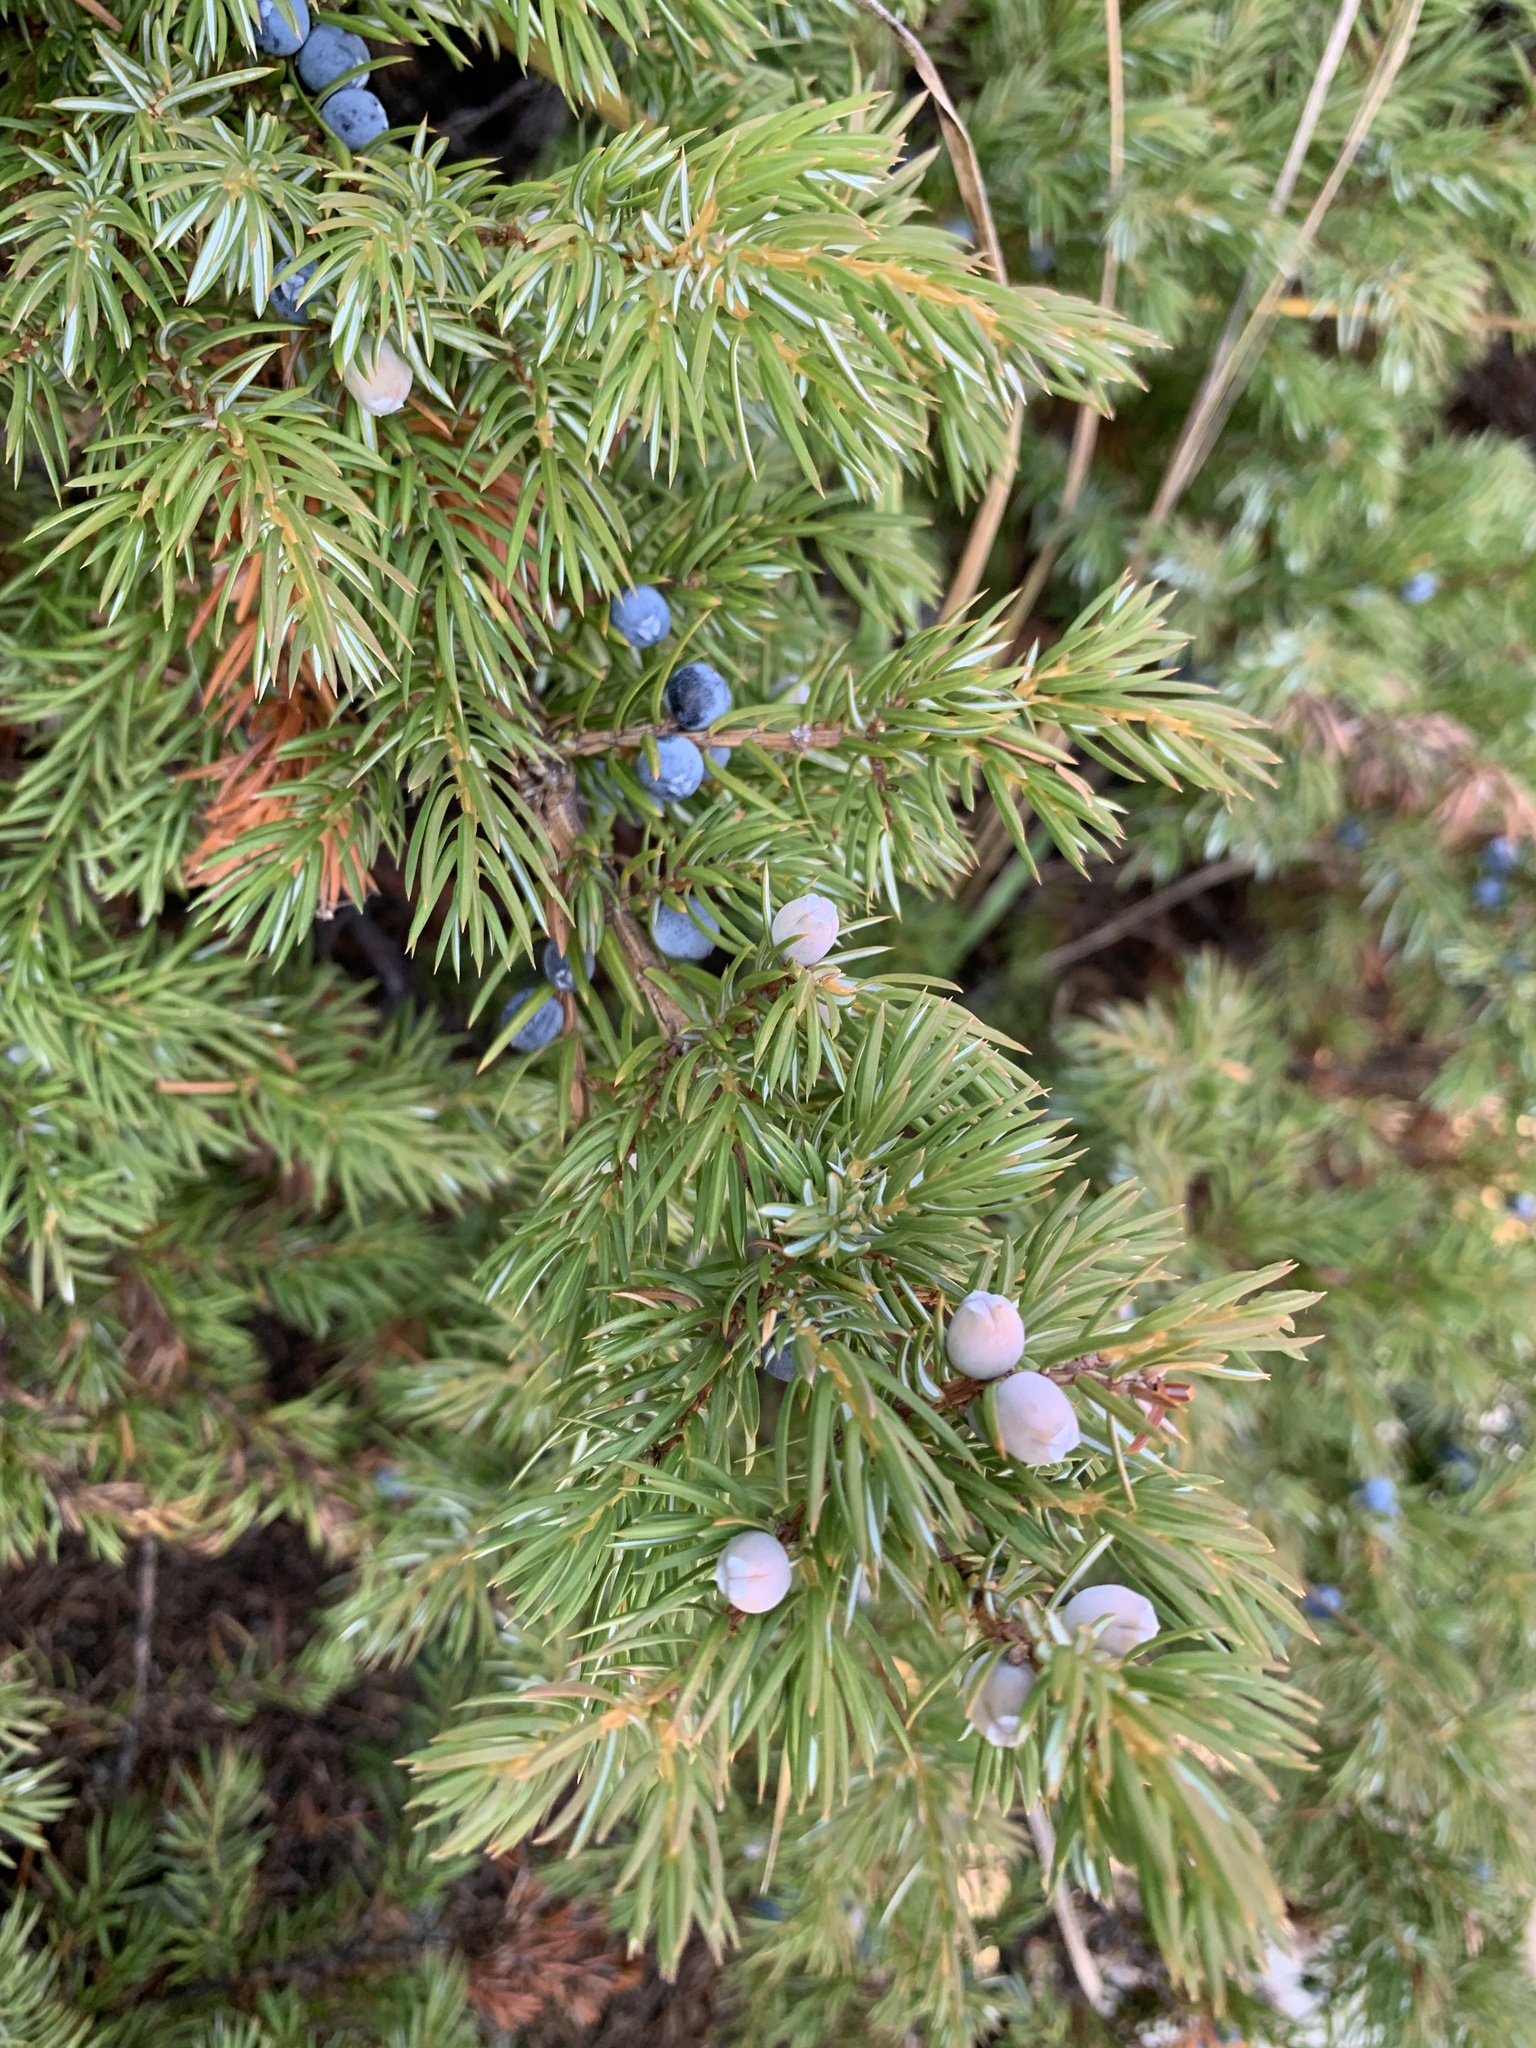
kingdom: Plantae
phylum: Tracheophyta
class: Pinopsida
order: Pinales
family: Cupressaceae
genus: Juniperus
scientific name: Juniperus communis
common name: Common juniper
